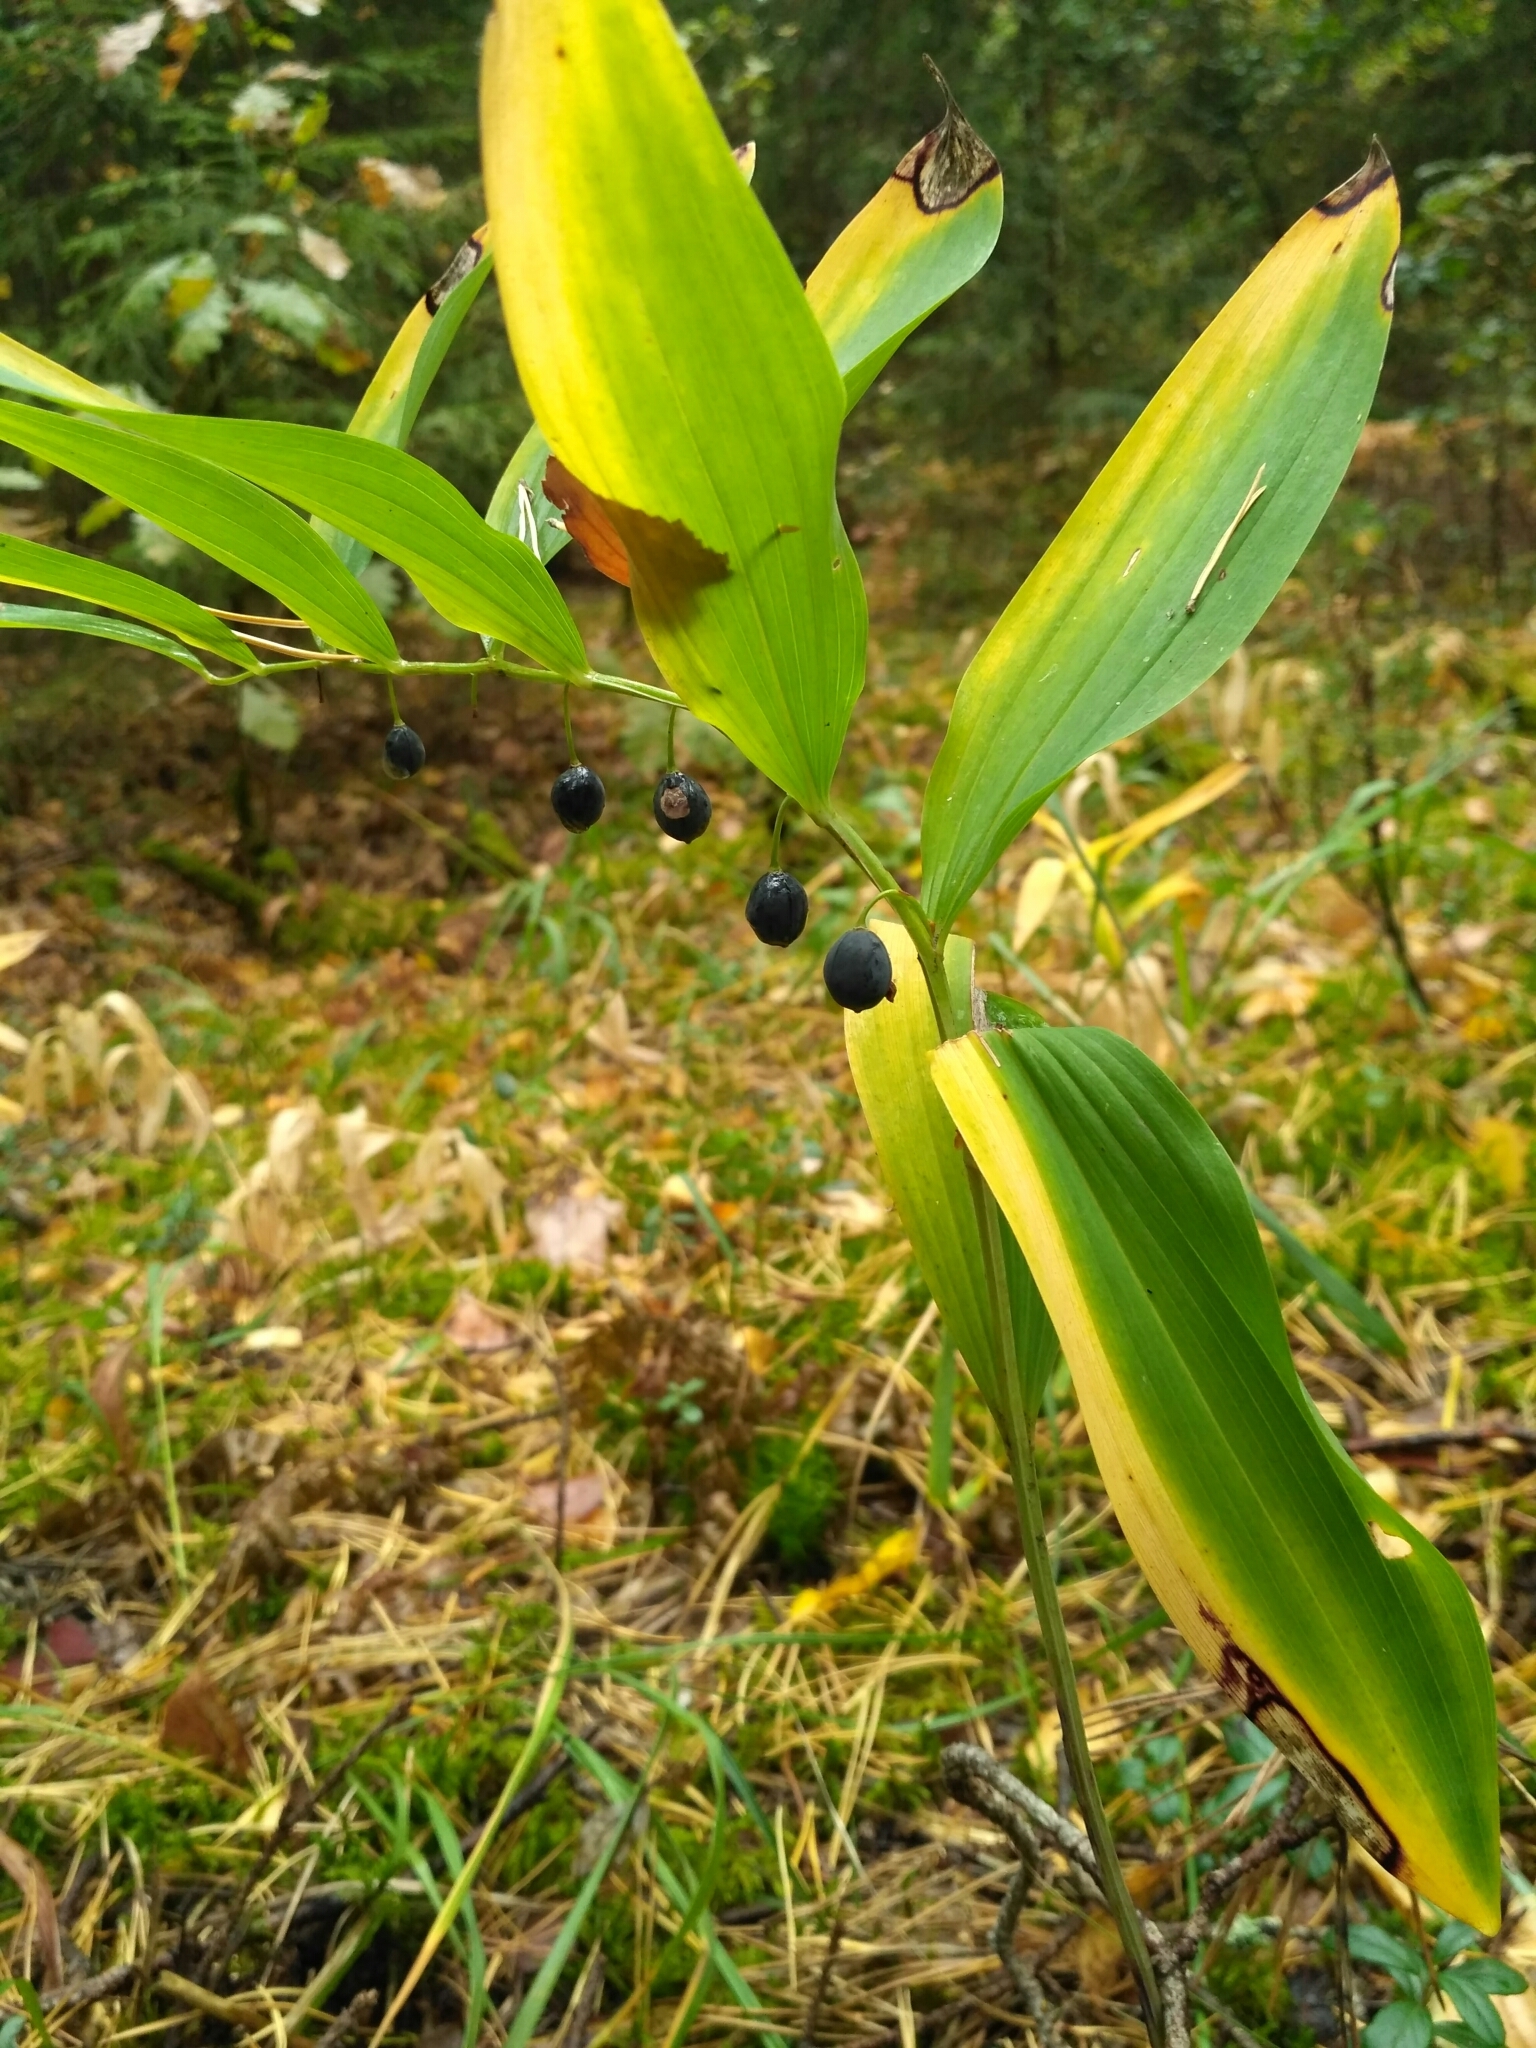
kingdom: Plantae
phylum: Tracheophyta
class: Liliopsida
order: Asparagales
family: Asparagaceae
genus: Polygonatum
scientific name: Polygonatum odoratum
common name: Angular solomon's-seal
